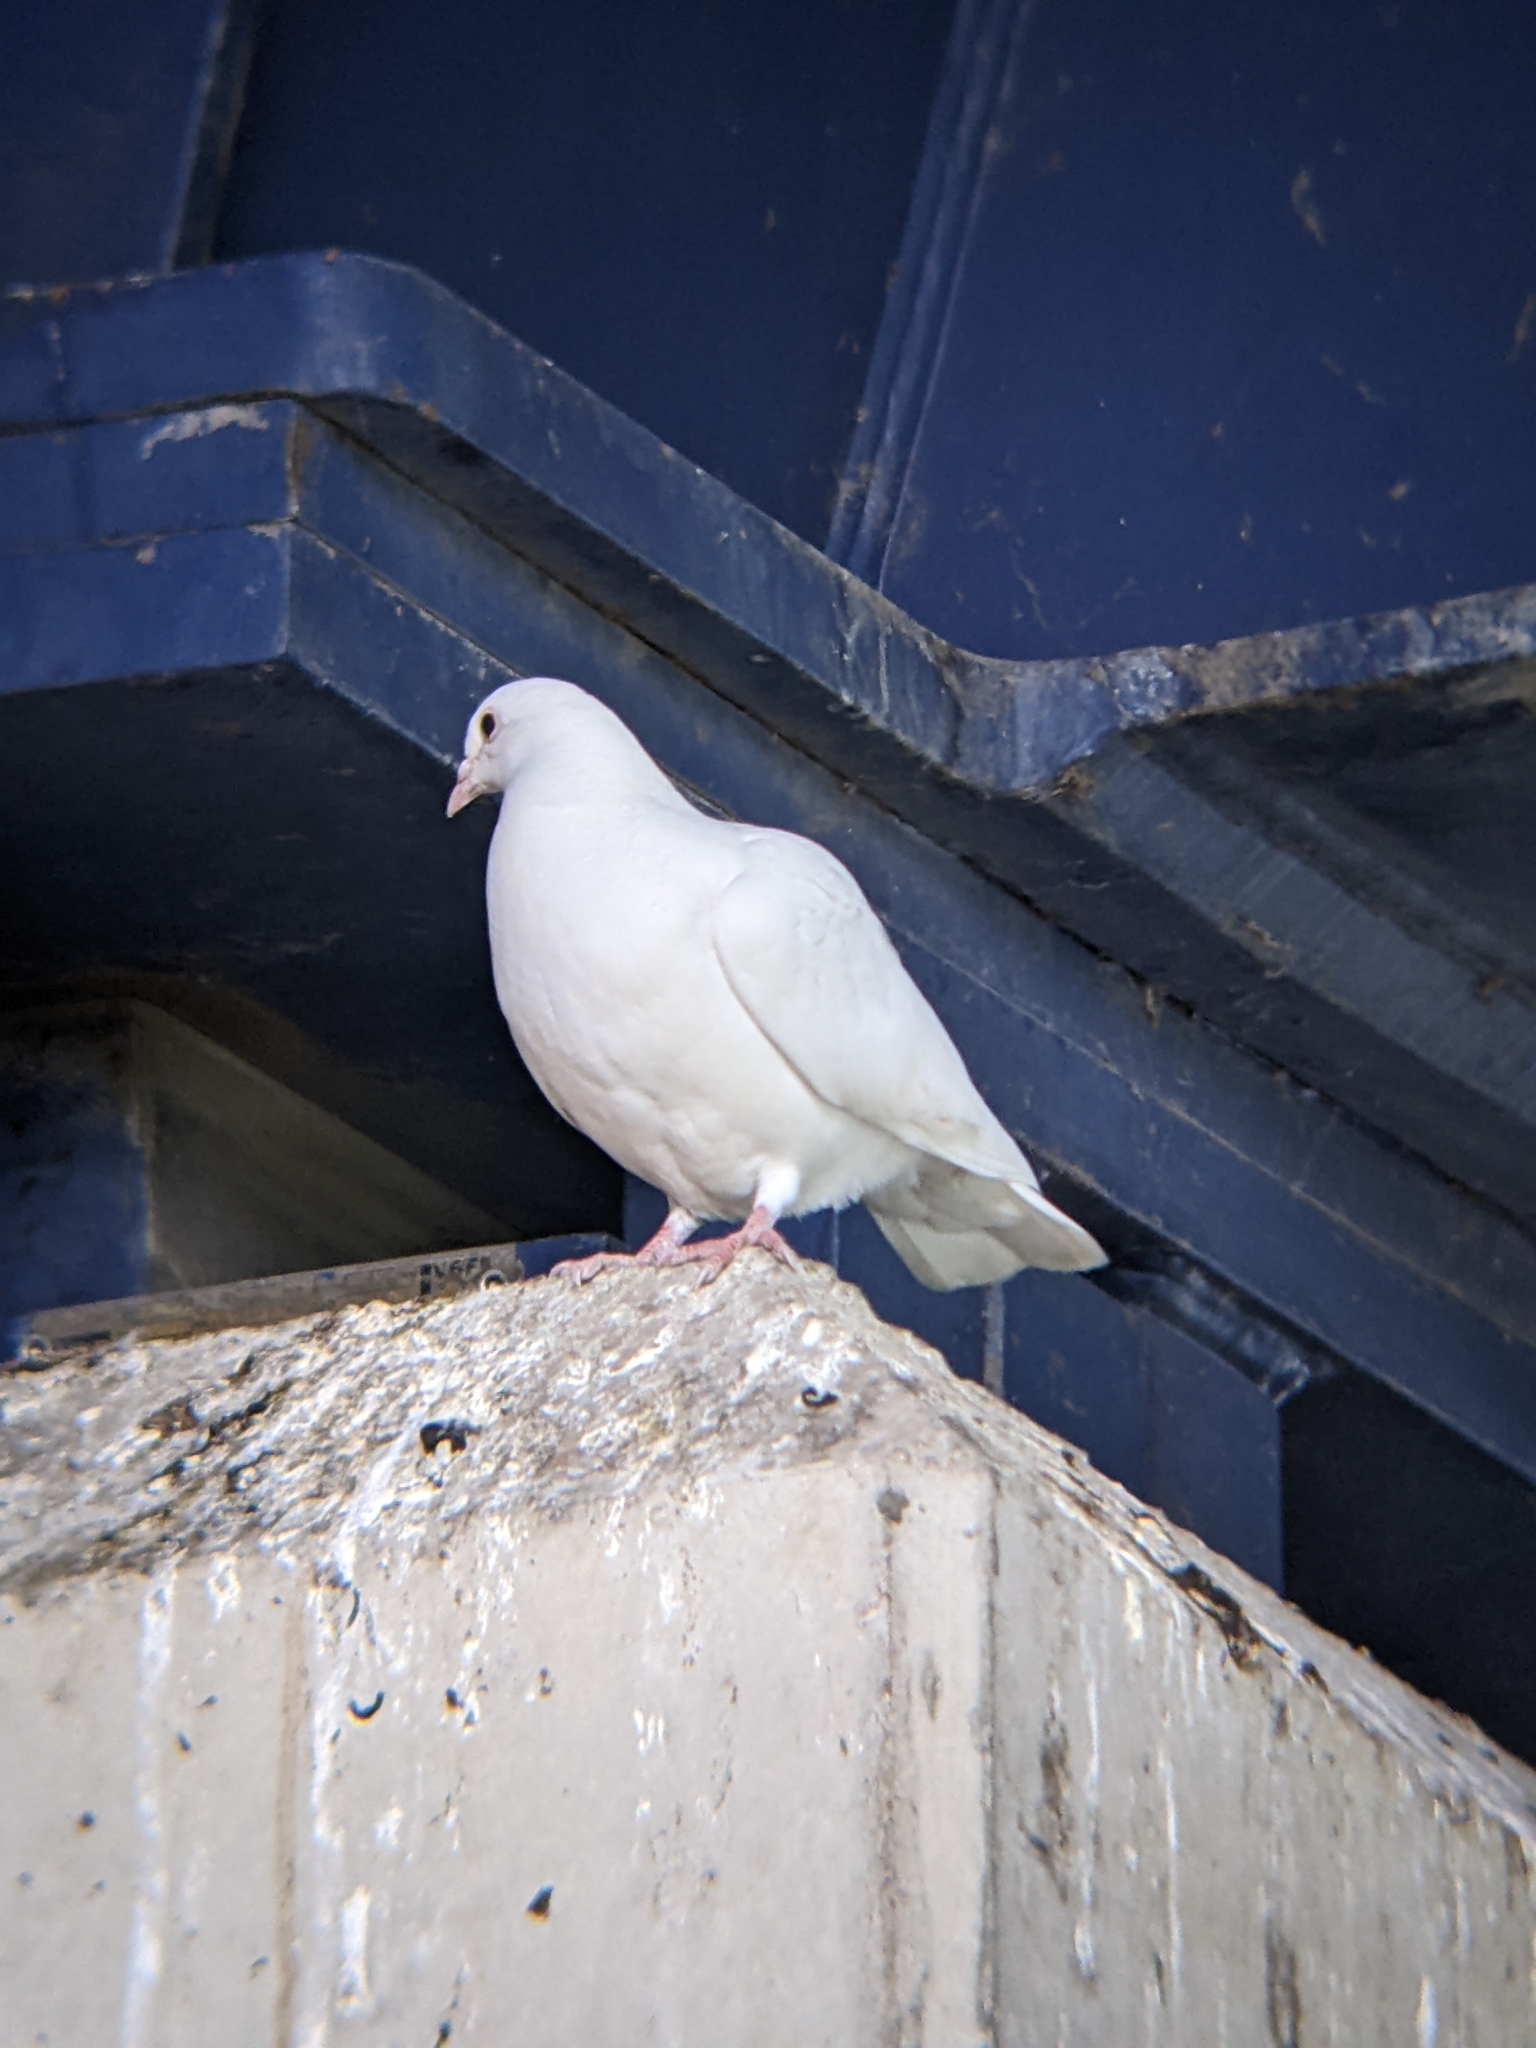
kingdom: Animalia
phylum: Chordata
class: Aves
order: Columbiformes
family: Columbidae
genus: Columba
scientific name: Columba livia
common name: Rock pigeon
